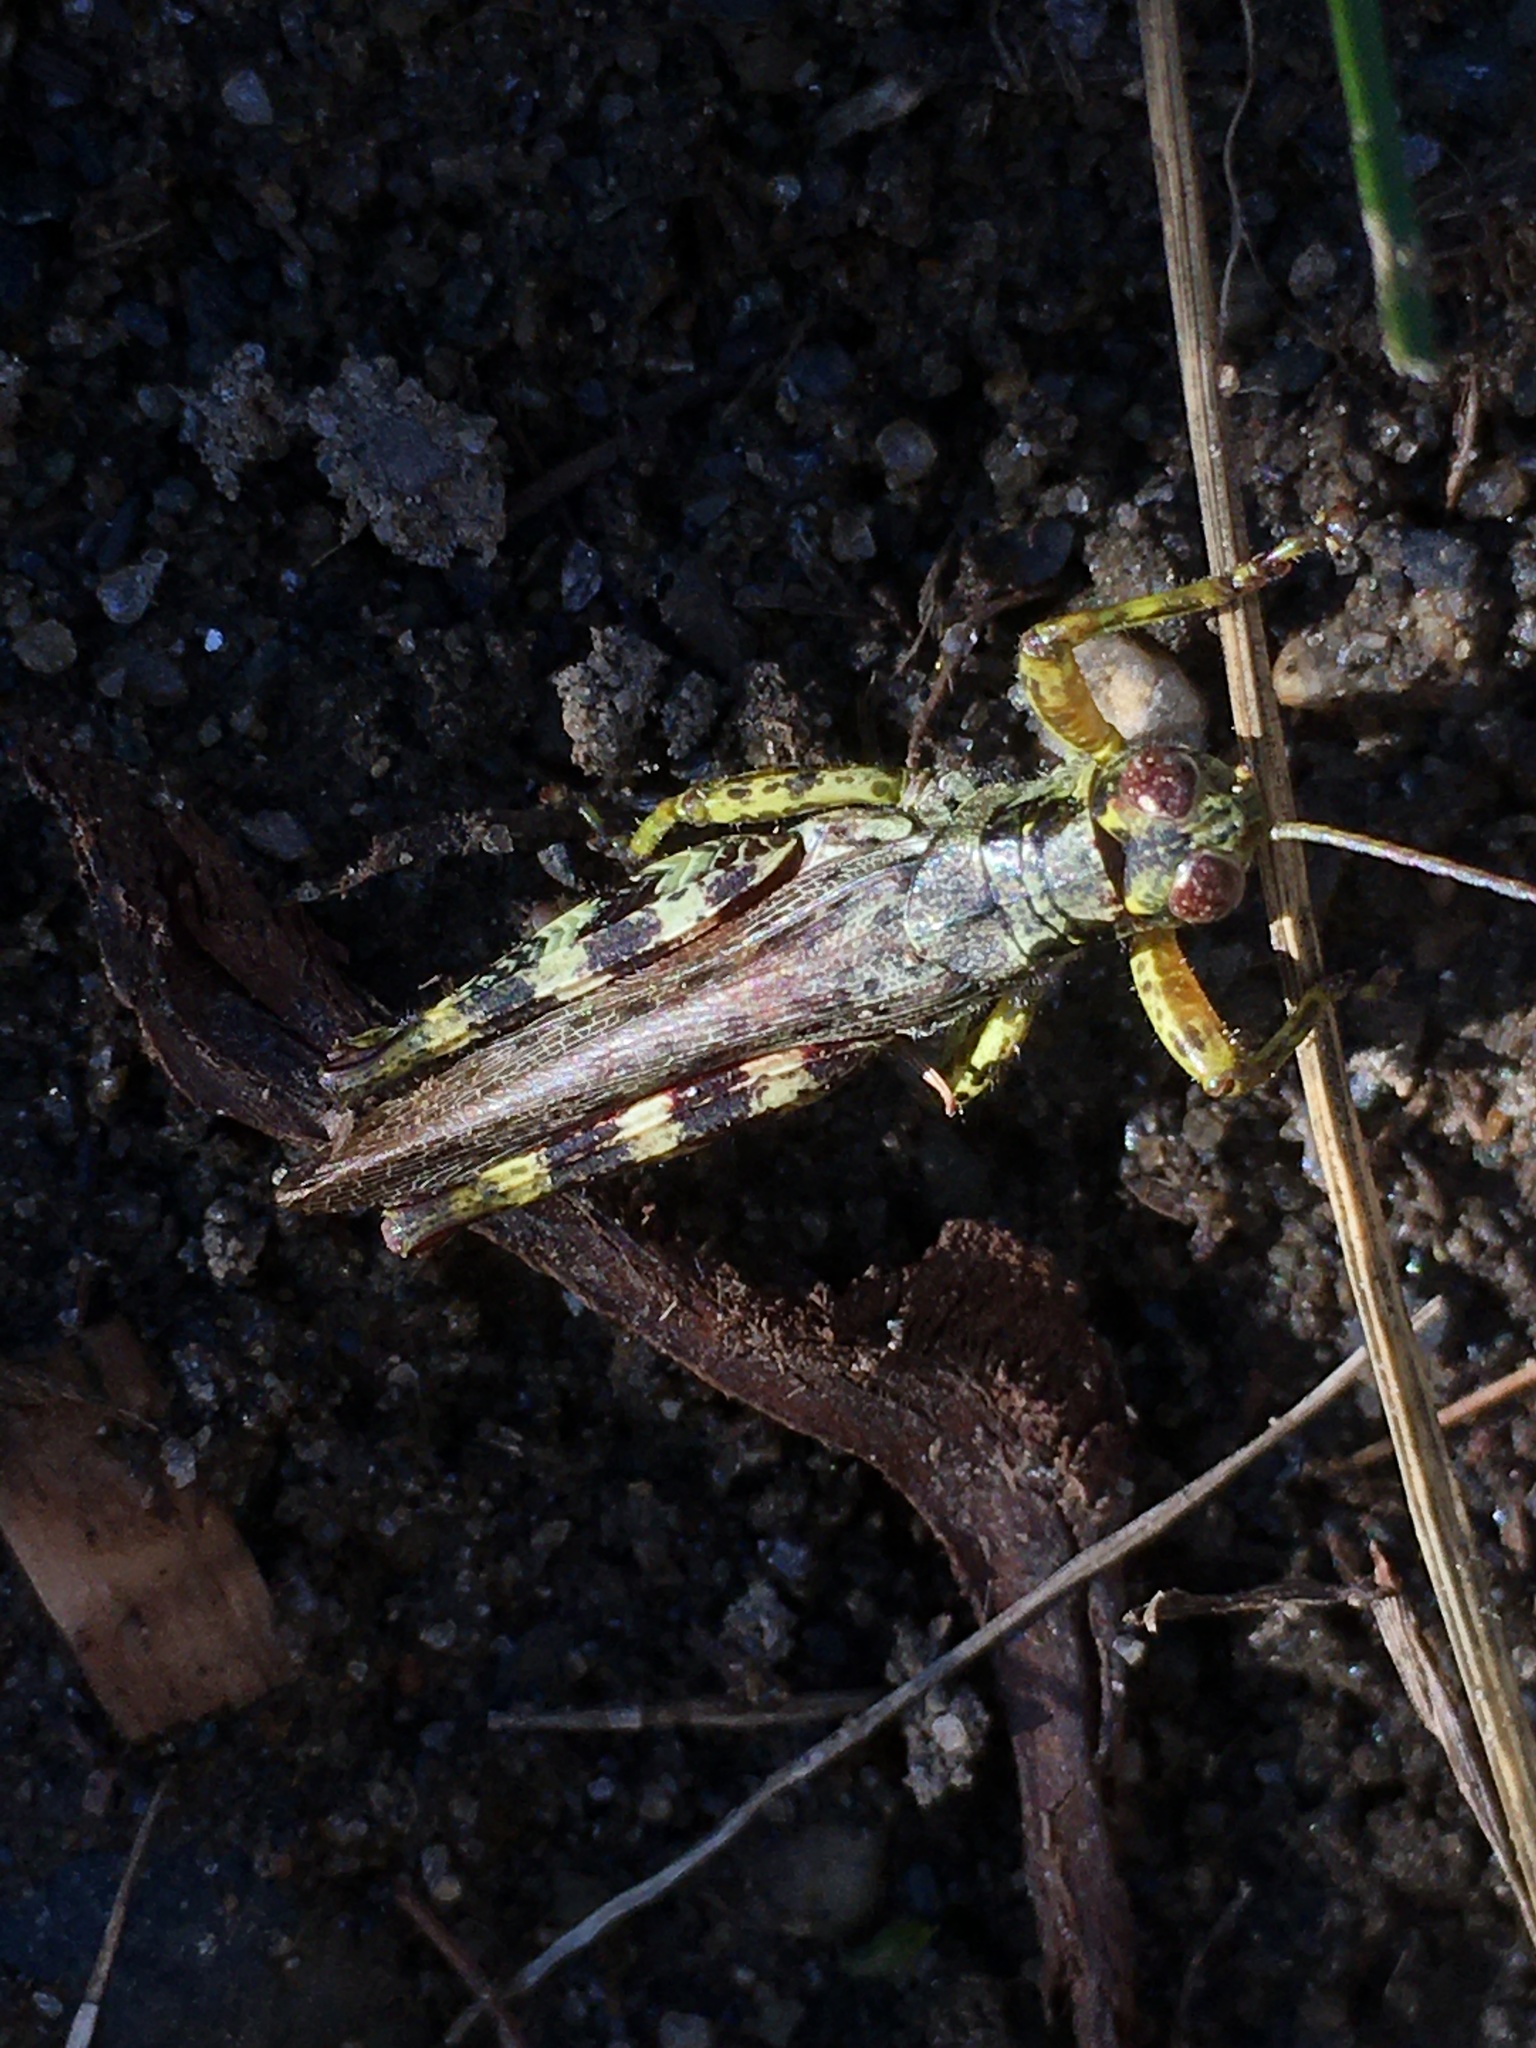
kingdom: Animalia
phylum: Arthropoda
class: Insecta
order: Orthoptera
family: Acrididae
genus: Melanoplus
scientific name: Melanoplus punctulatus
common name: Pine-tree spur-throat grasshopper
